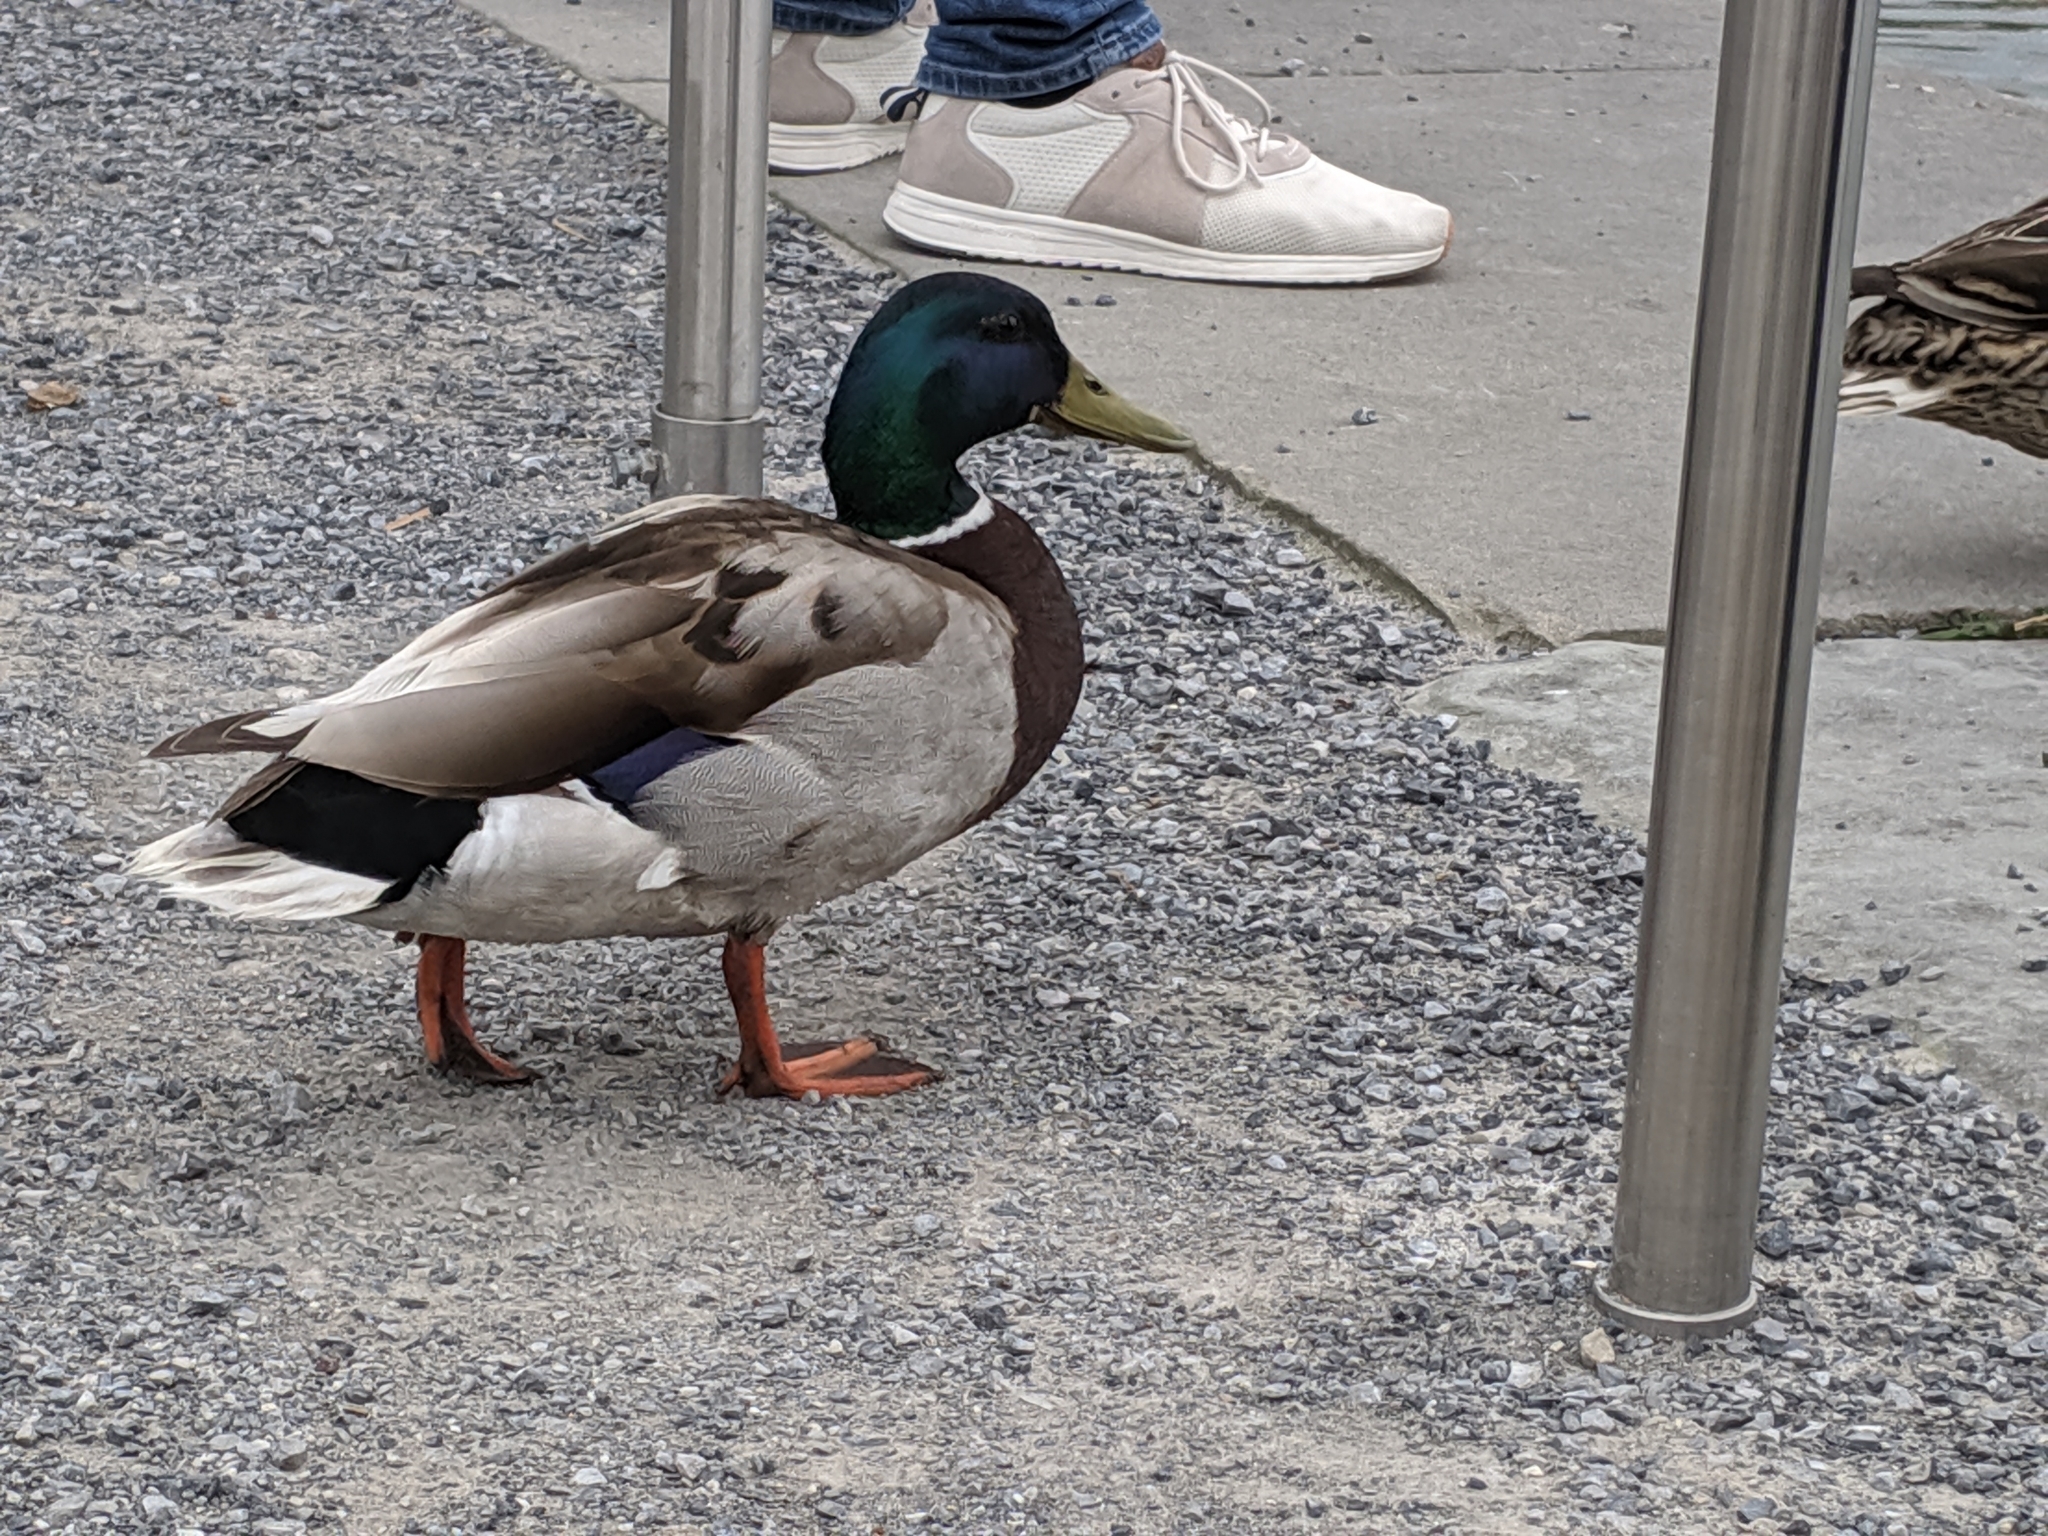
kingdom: Animalia
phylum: Chordata
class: Aves
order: Anseriformes
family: Anatidae
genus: Anas
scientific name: Anas platyrhynchos
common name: Mallard
